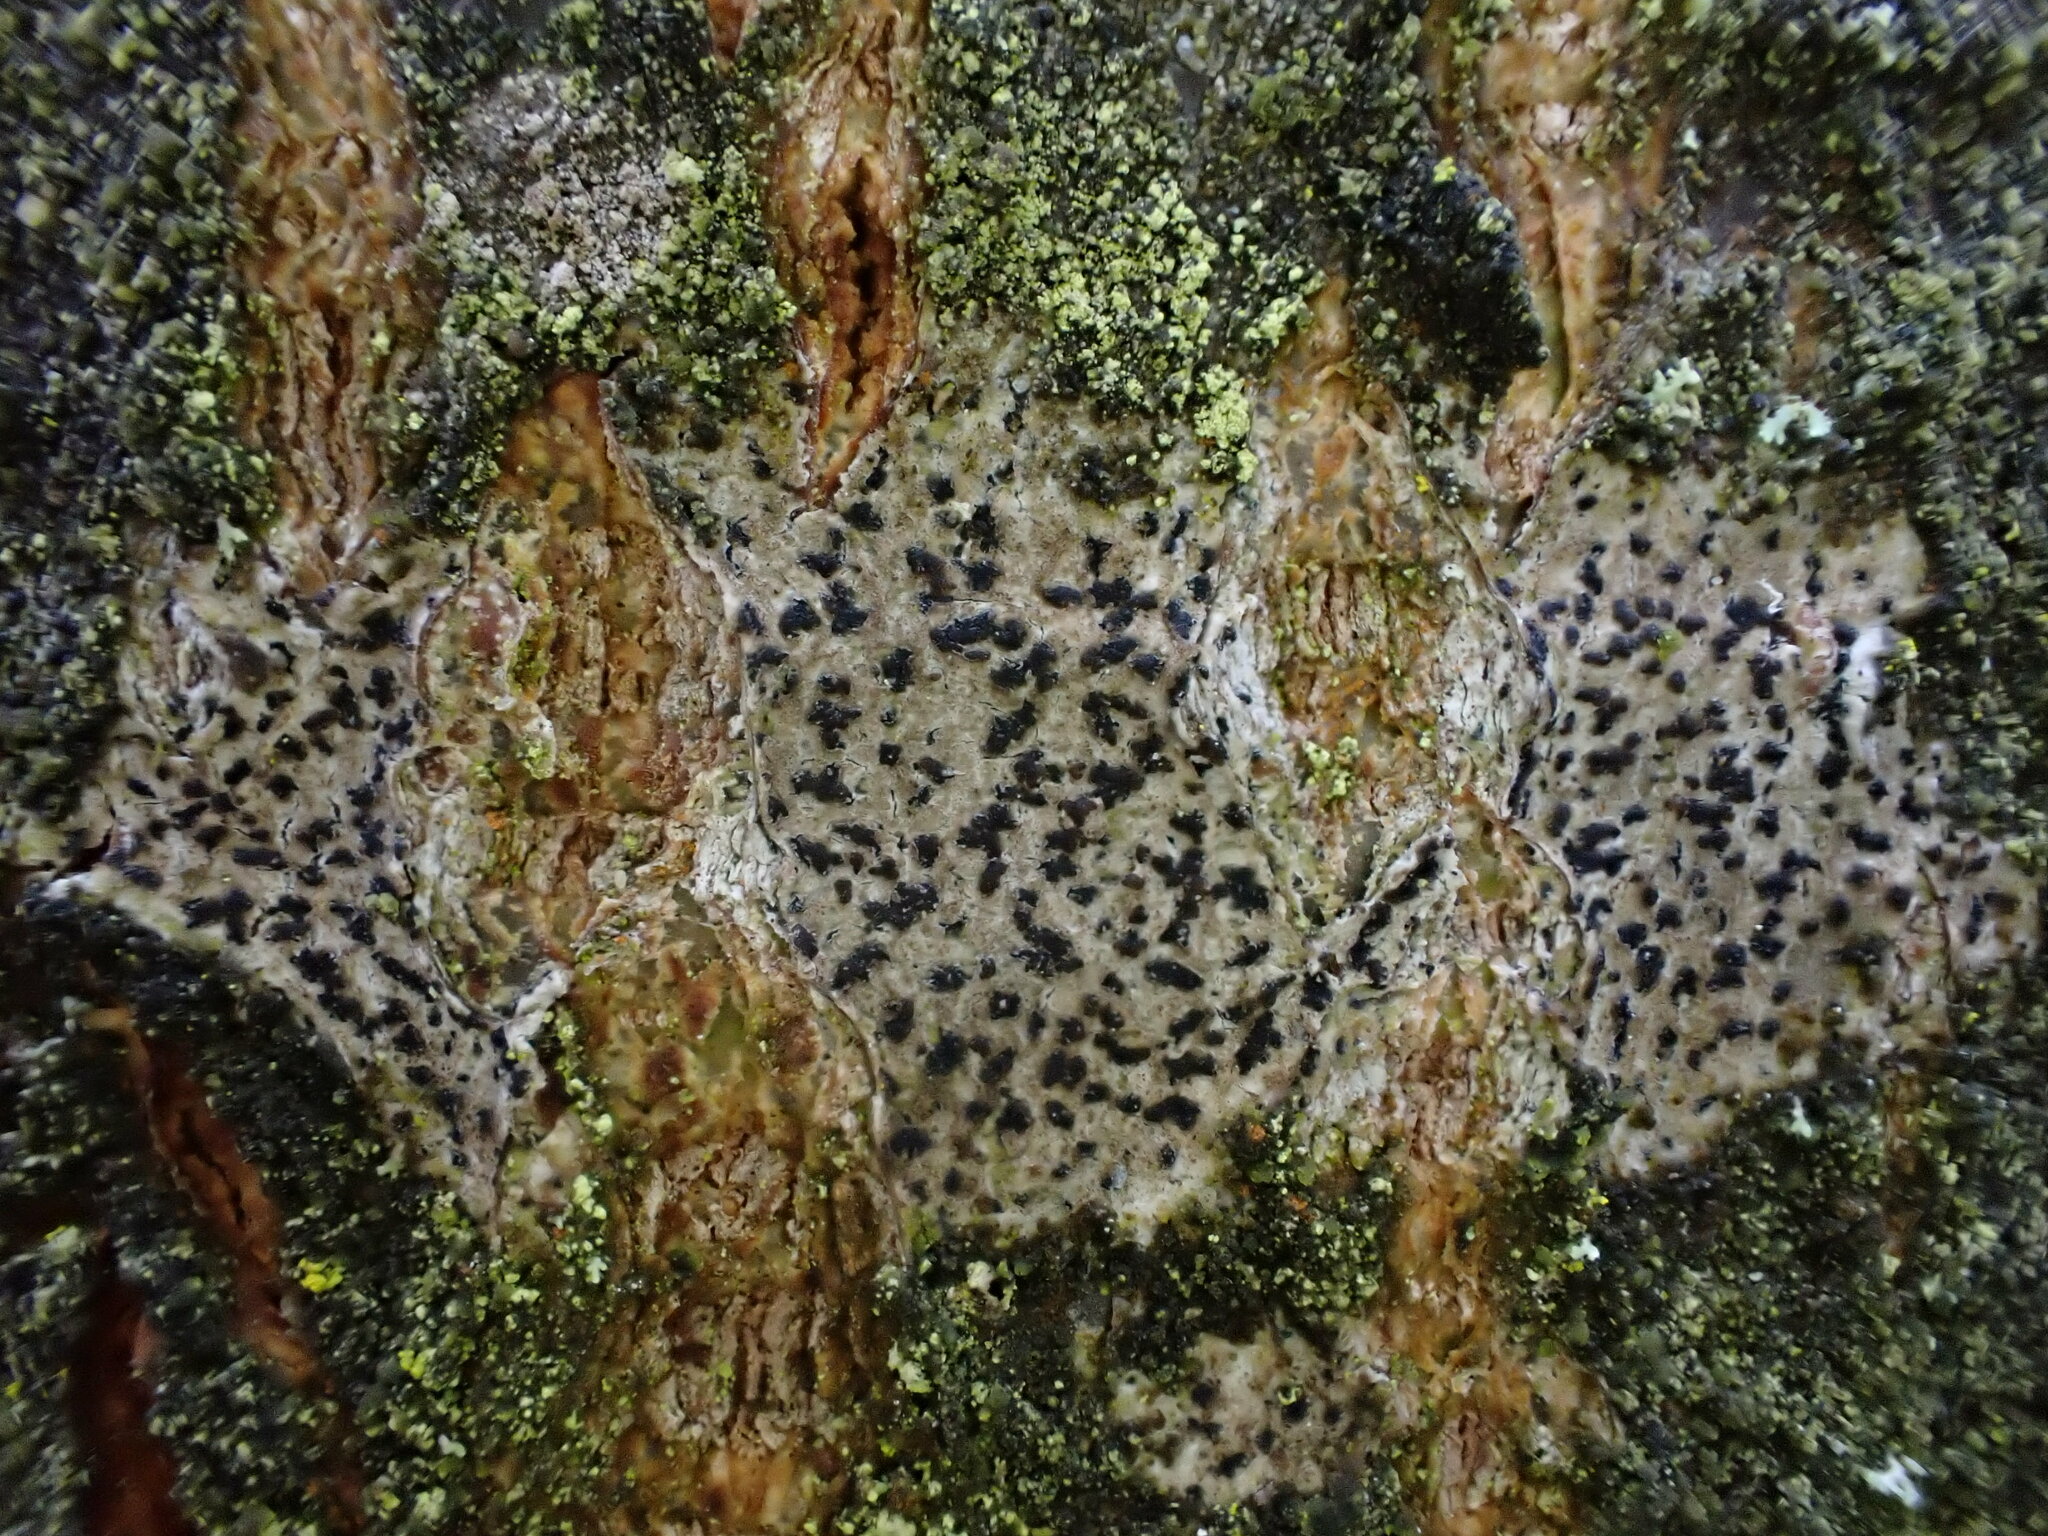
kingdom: Fungi
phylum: Ascomycota
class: Arthoniomycetes
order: Arthoniales
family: Arthoniaceae
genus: Arthonia
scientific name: Arthonia atra
